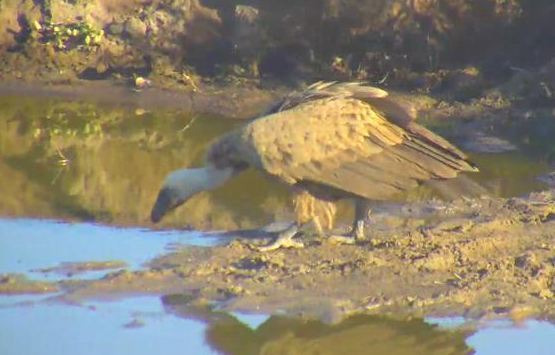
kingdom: Animalia
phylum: Chordata
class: Aves
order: Accipitriformes
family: Accipitridae
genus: Gyps
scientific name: Gyps africanus
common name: White-backed vulture
